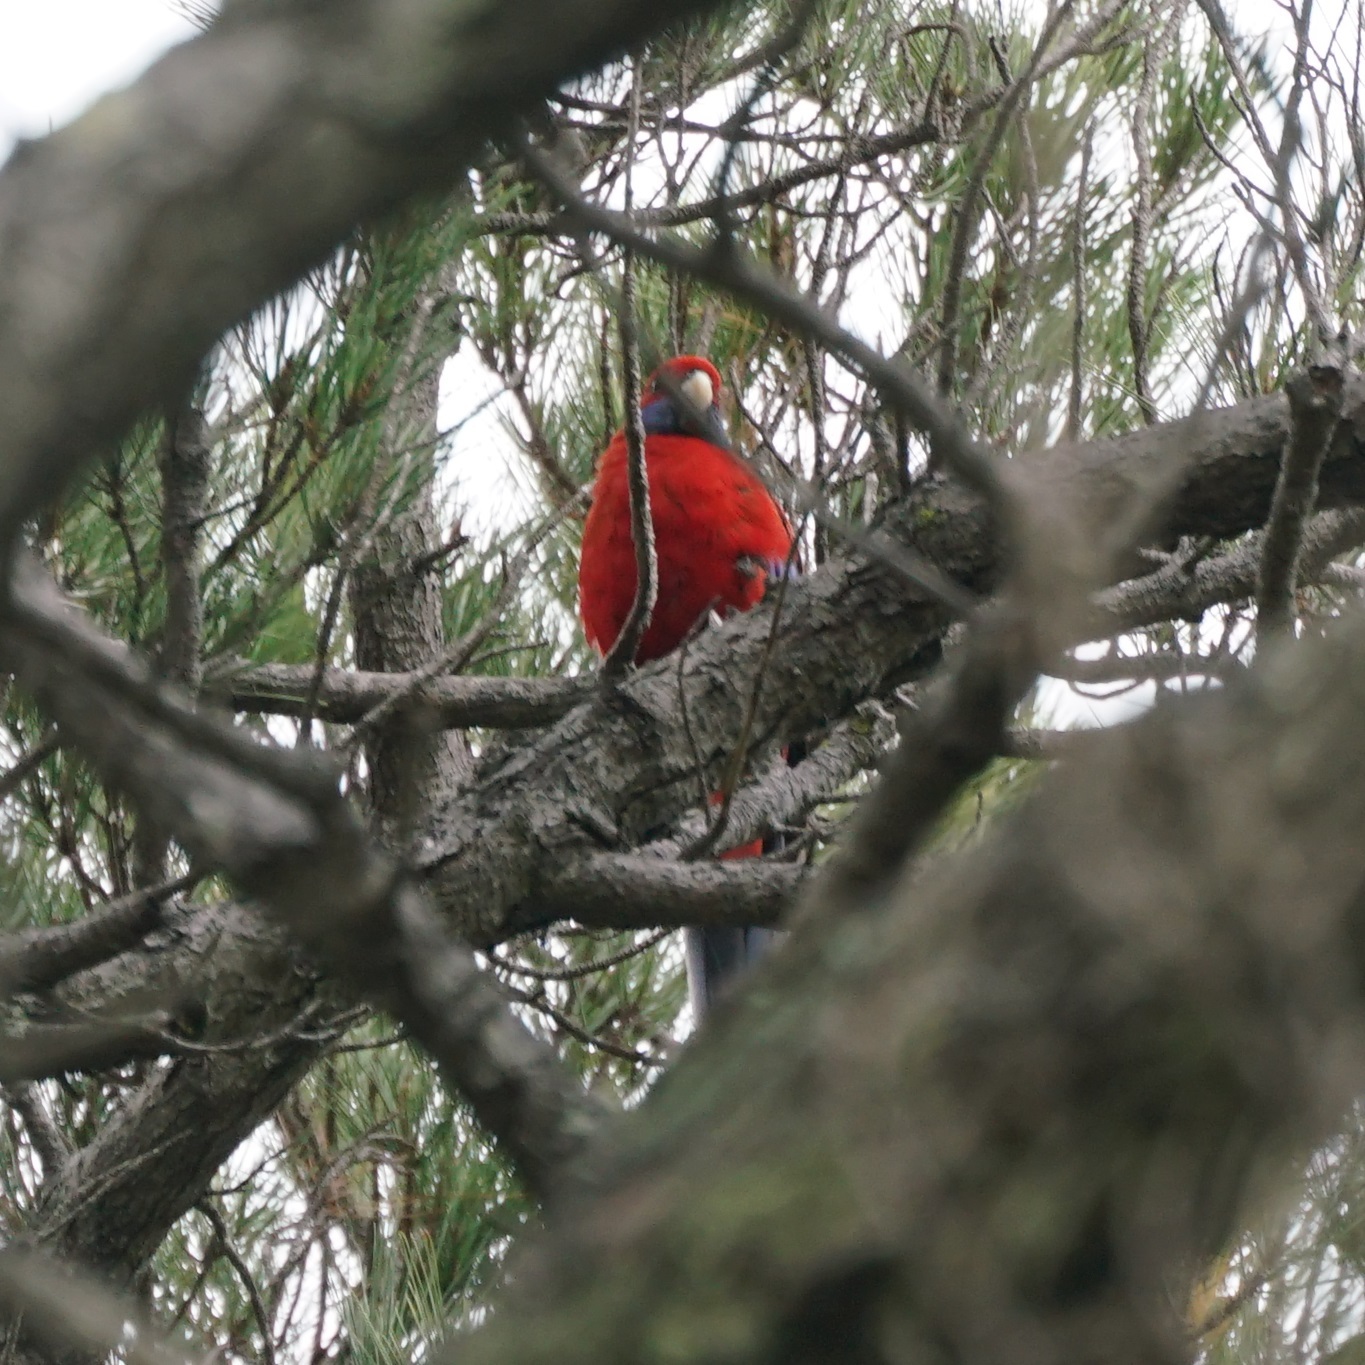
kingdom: Animalia
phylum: Chordata
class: Aves
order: Psittaciformes
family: Psittacidae
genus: Platycercus
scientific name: Platycercus elegans
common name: Crimson rosella
